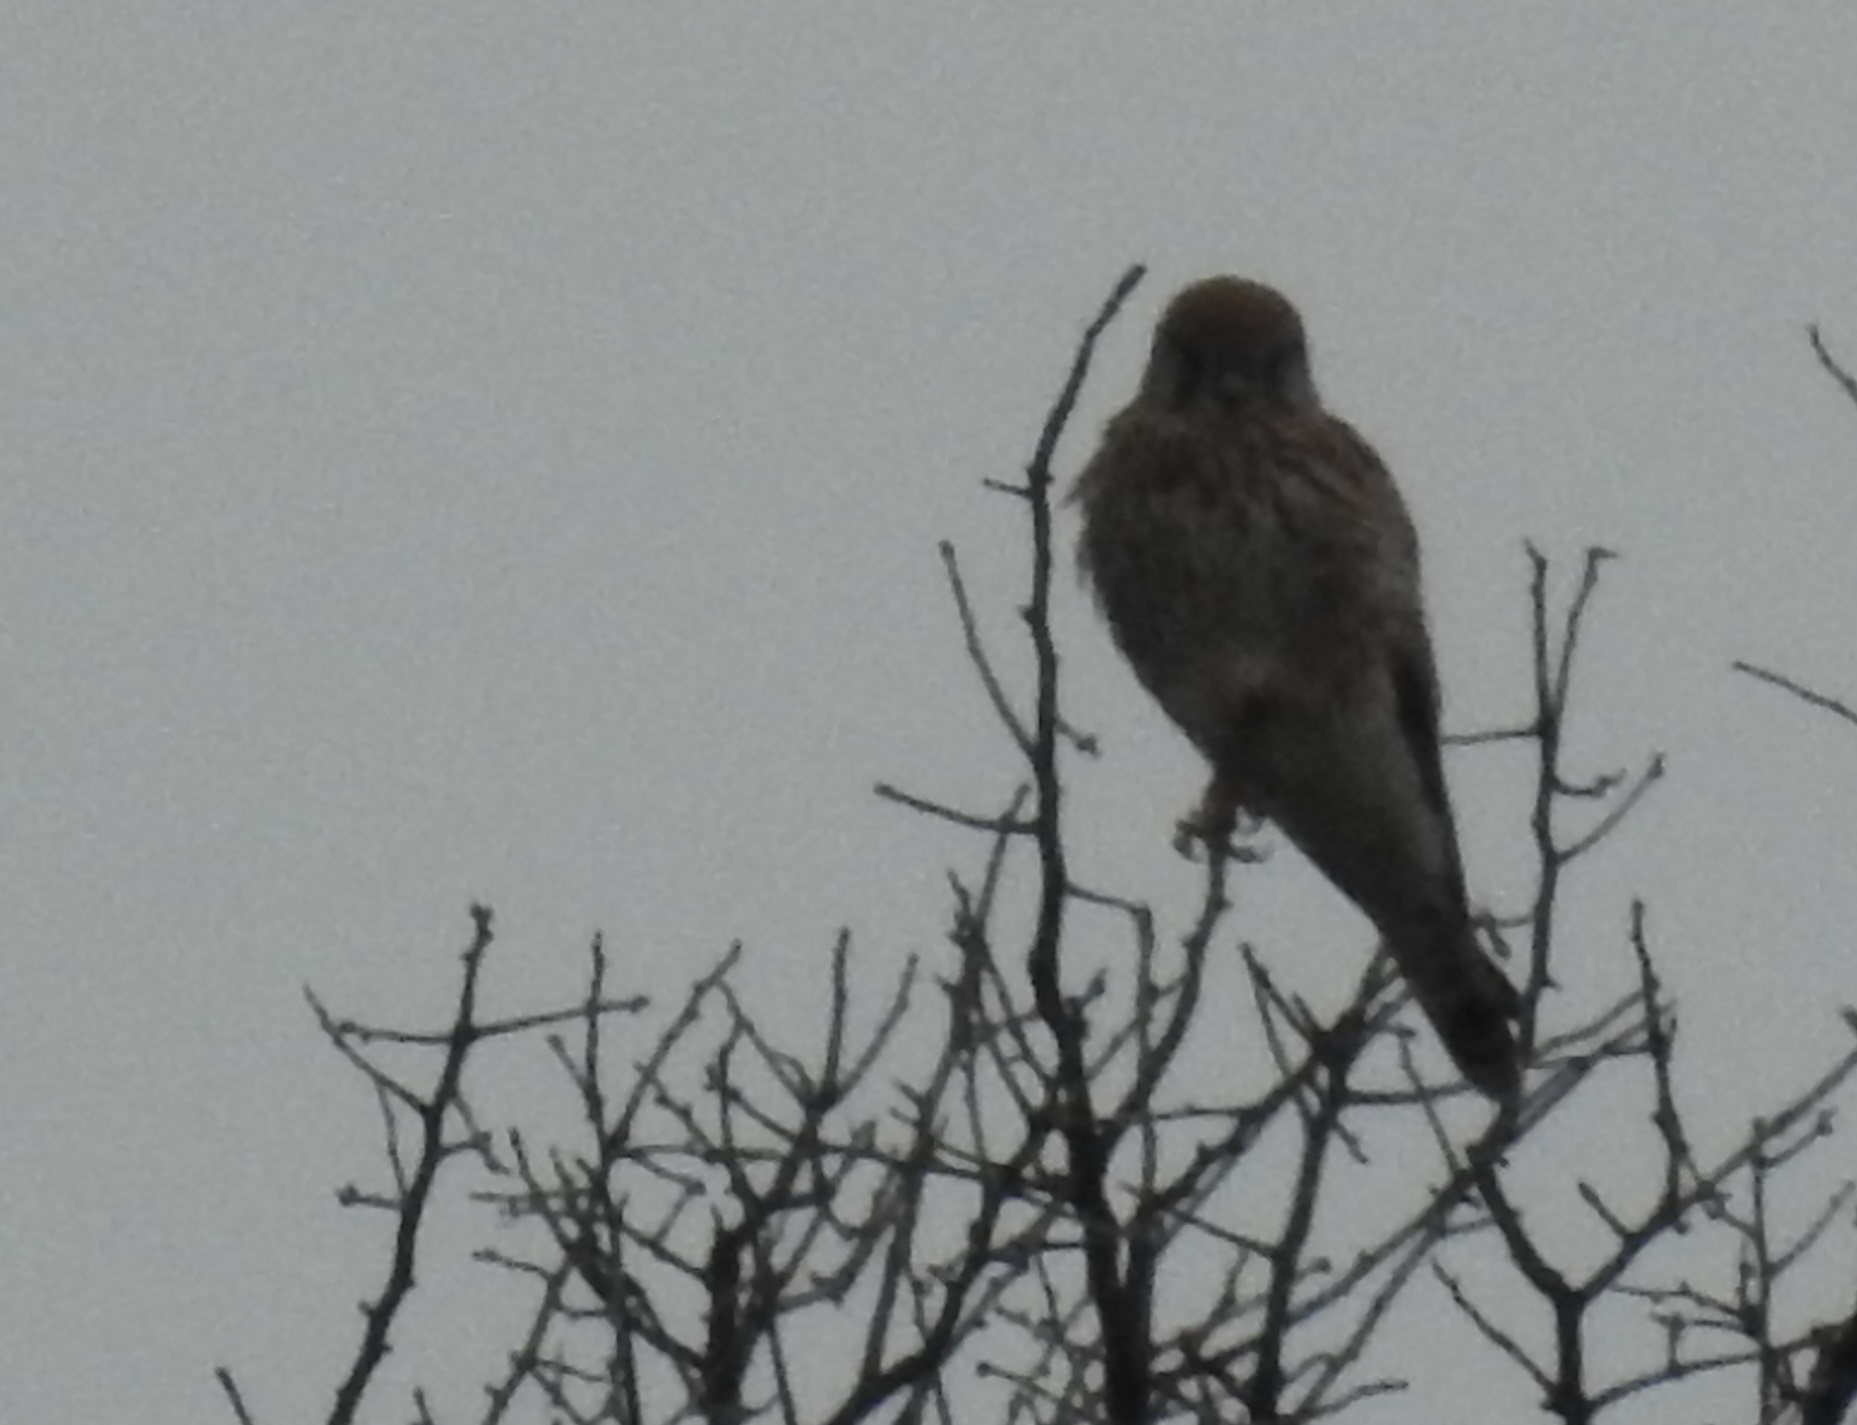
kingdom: Animalia
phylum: Chordata
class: Aves
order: Falconiformes
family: Falconidae
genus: Falco
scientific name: Falco tinnunculus
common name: Common kestrel
